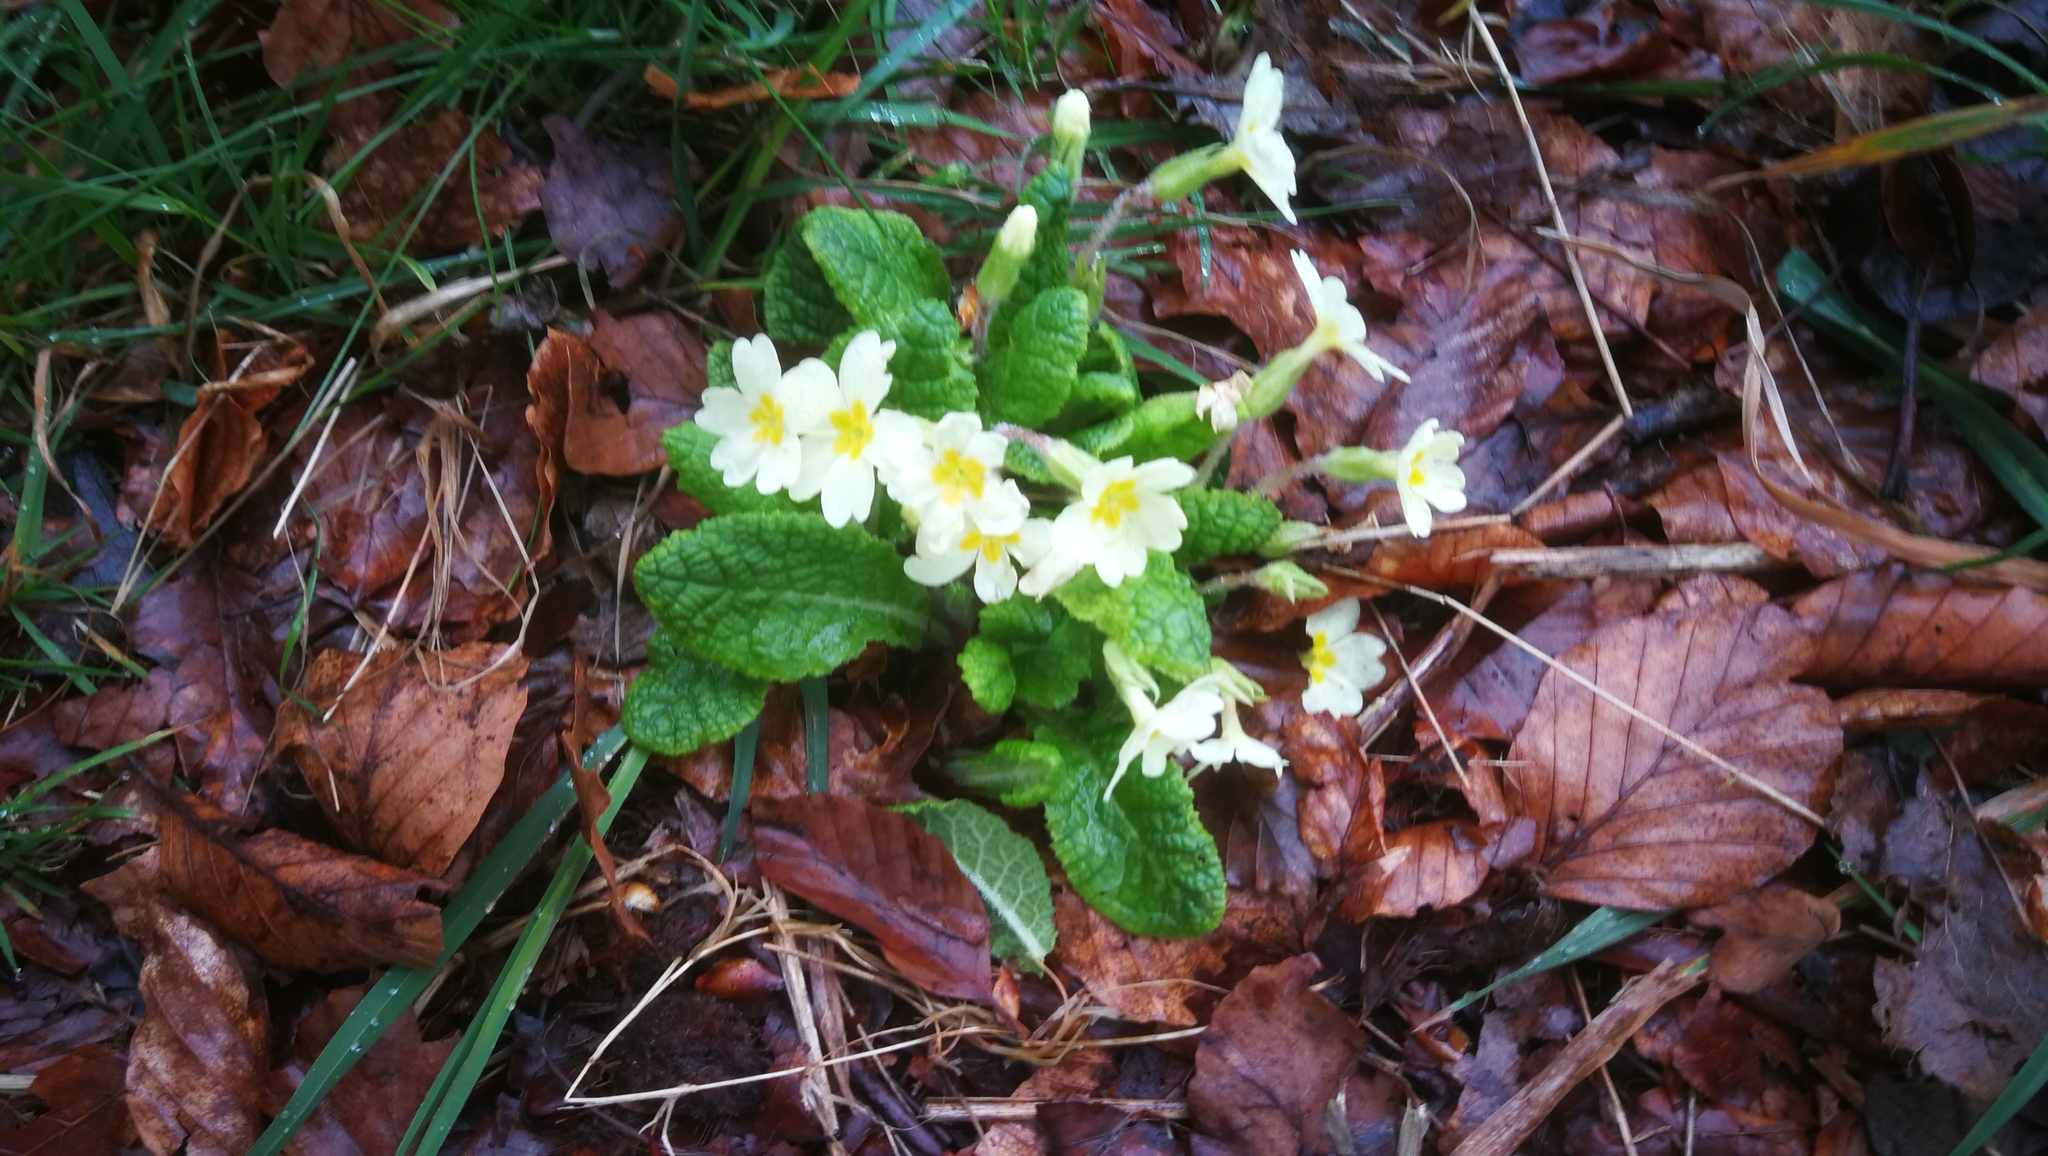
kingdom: Plantae
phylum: Tracheophyta
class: Magnoliopsida
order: Ericales
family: Primulaceae
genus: Primula
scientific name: Primula vulgaris
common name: Primrose
